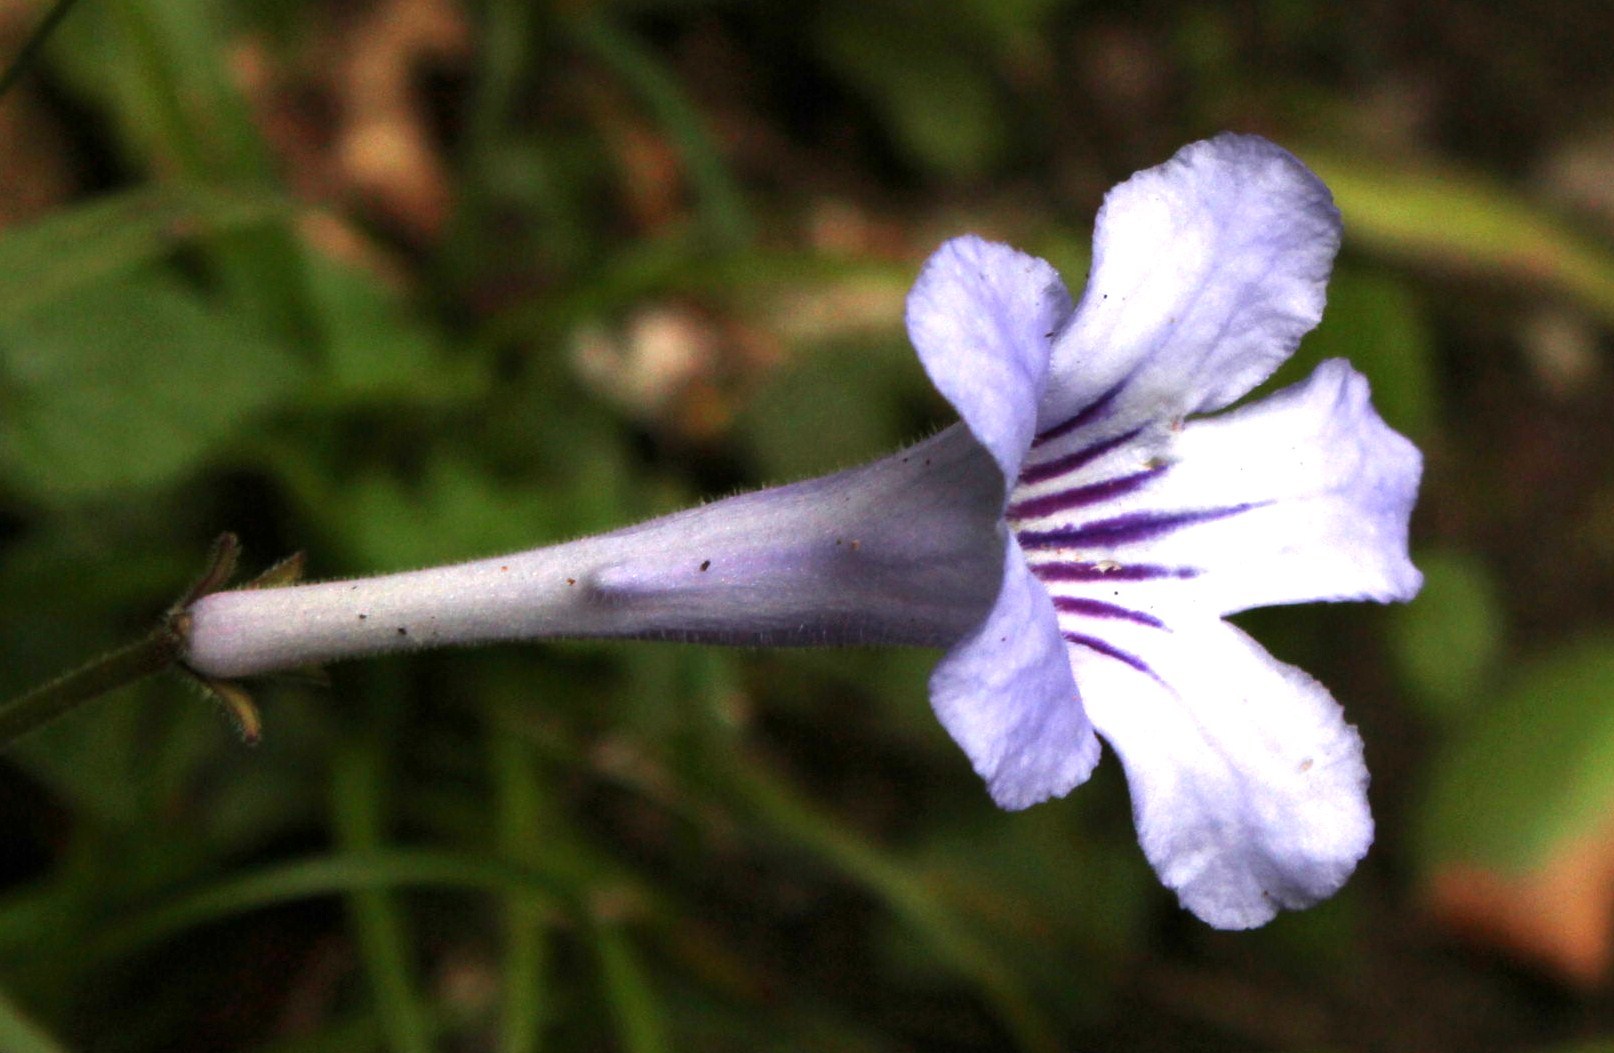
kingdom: Plantae
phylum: Tracheophyta
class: Magnoliopsida
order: Lamiales
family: Gesneriaceae
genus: Streptocarpus
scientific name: Streptocarpus rexii
